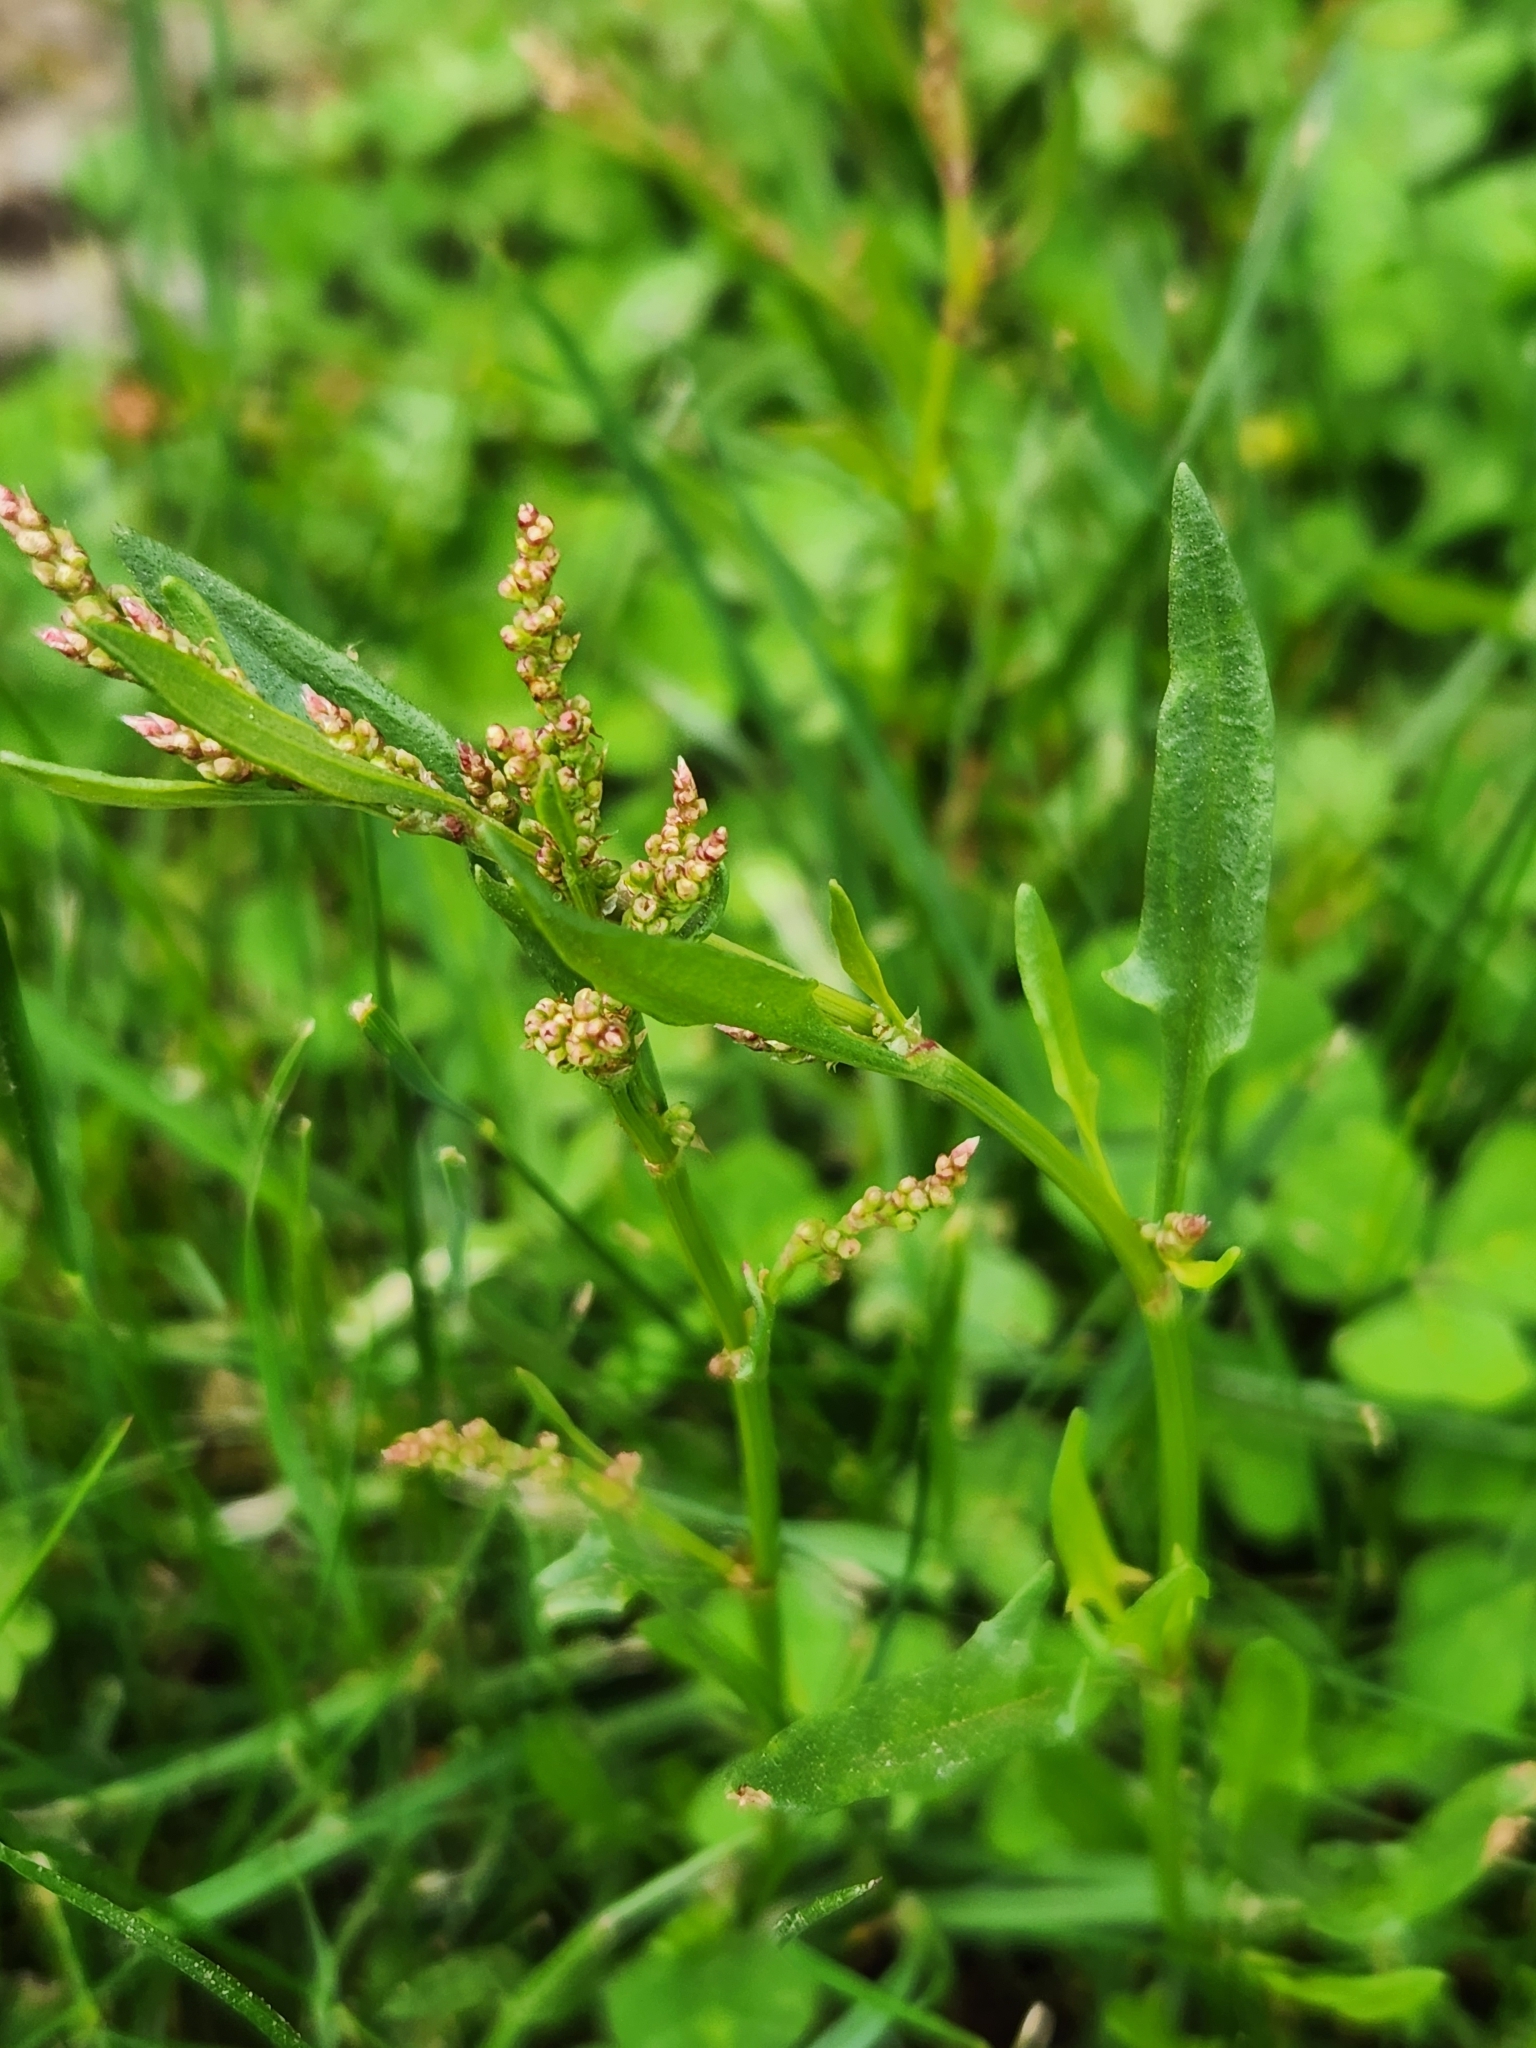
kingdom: Plantae
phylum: Tracheophyta
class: Magnoliopsida
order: Caryophyllales
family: Polygonaceae
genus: Rumex
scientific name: Rumex acetosella
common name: Common sheep sorrel
